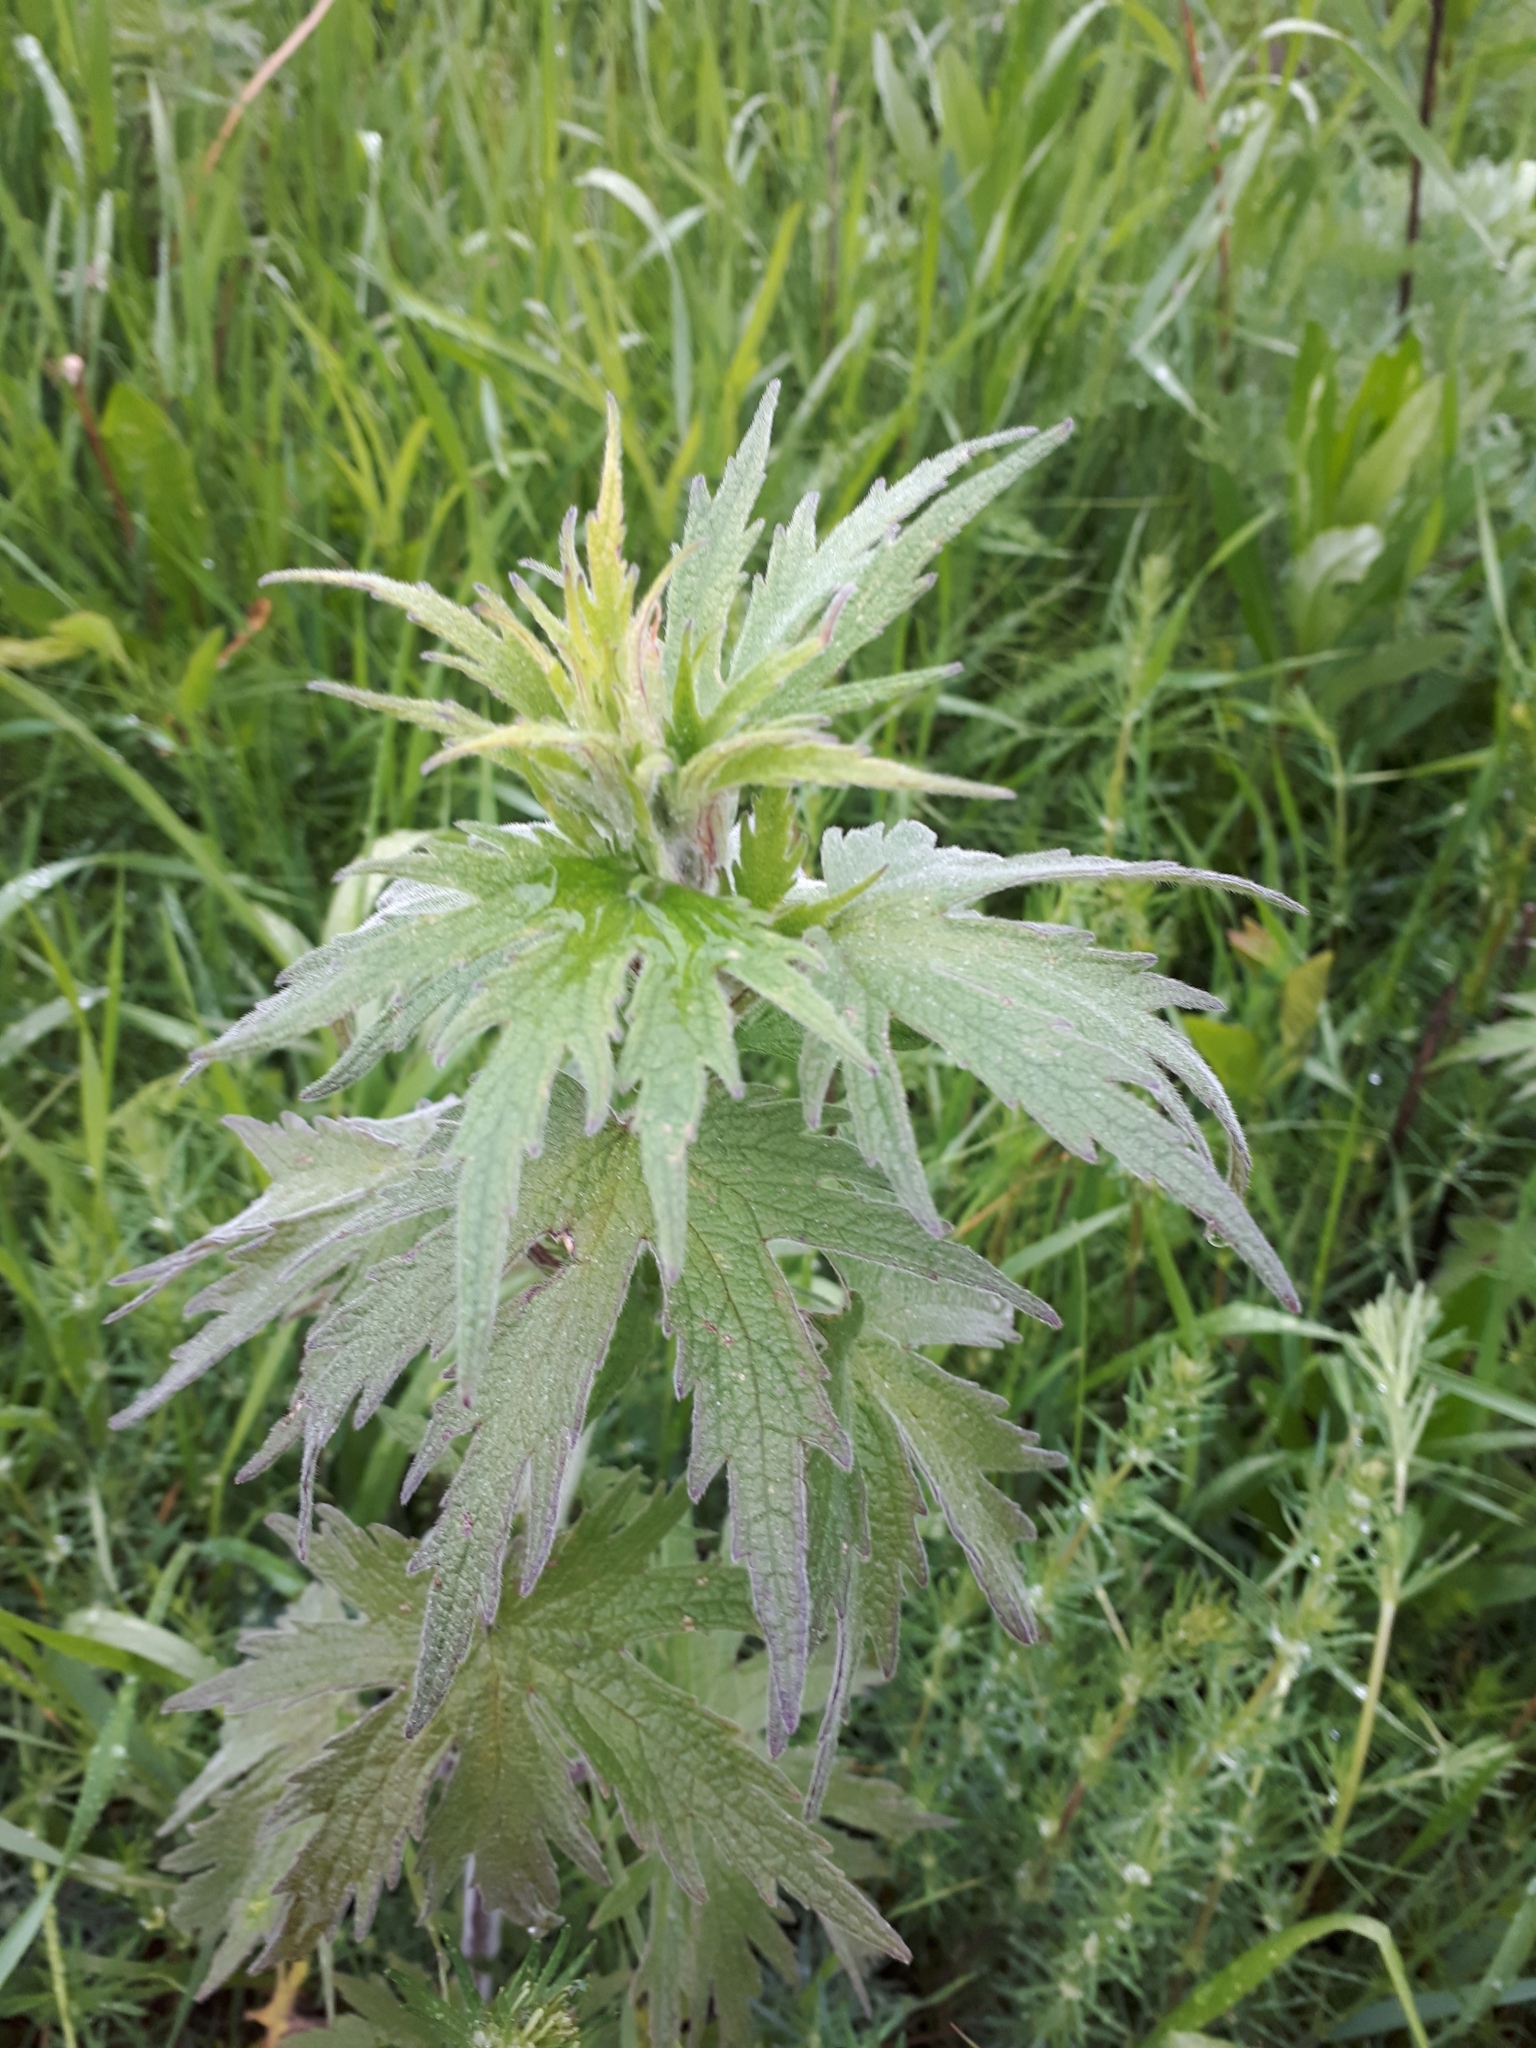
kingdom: Plantae
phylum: Tracheophyta
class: Magnoliopsida
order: Lamiales
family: Lamiaceae
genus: Leonurus
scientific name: Leonurus quinquelobatus
